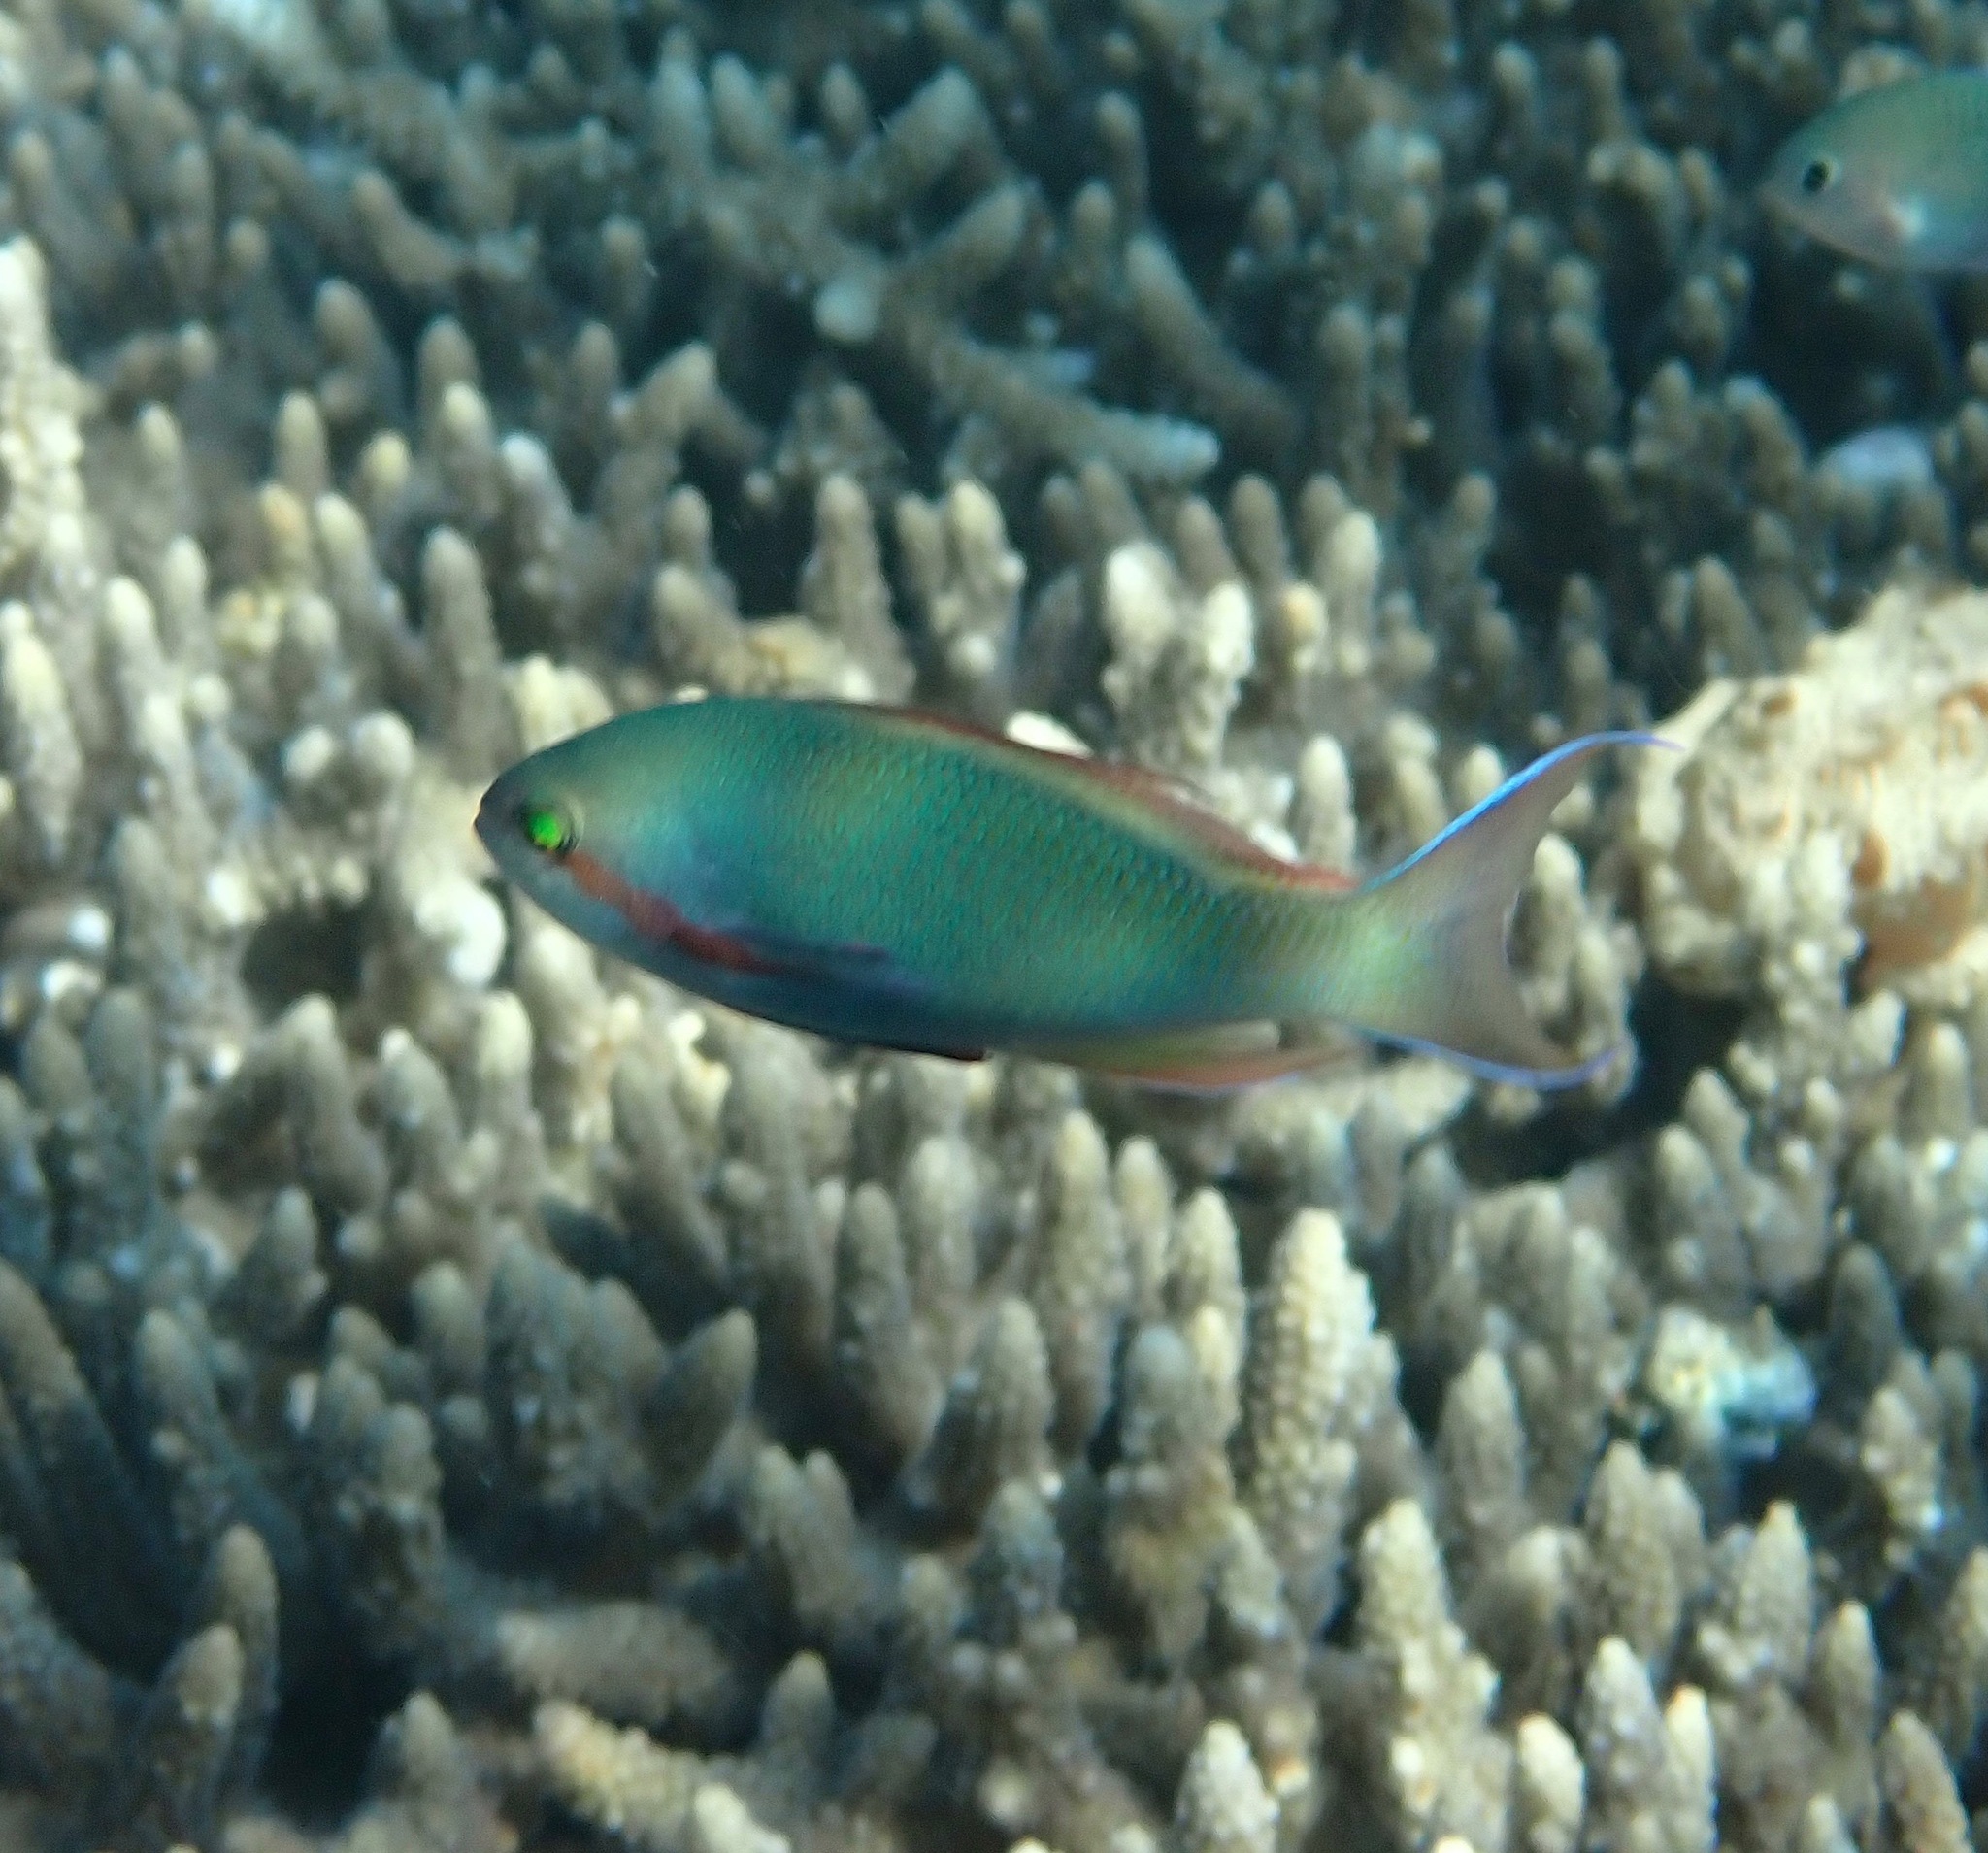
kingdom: Animalia
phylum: Chordata
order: Perciformes
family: Serranidae
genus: Pseudanthias
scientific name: Pseudanthias huchtii
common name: Pacific basslet
